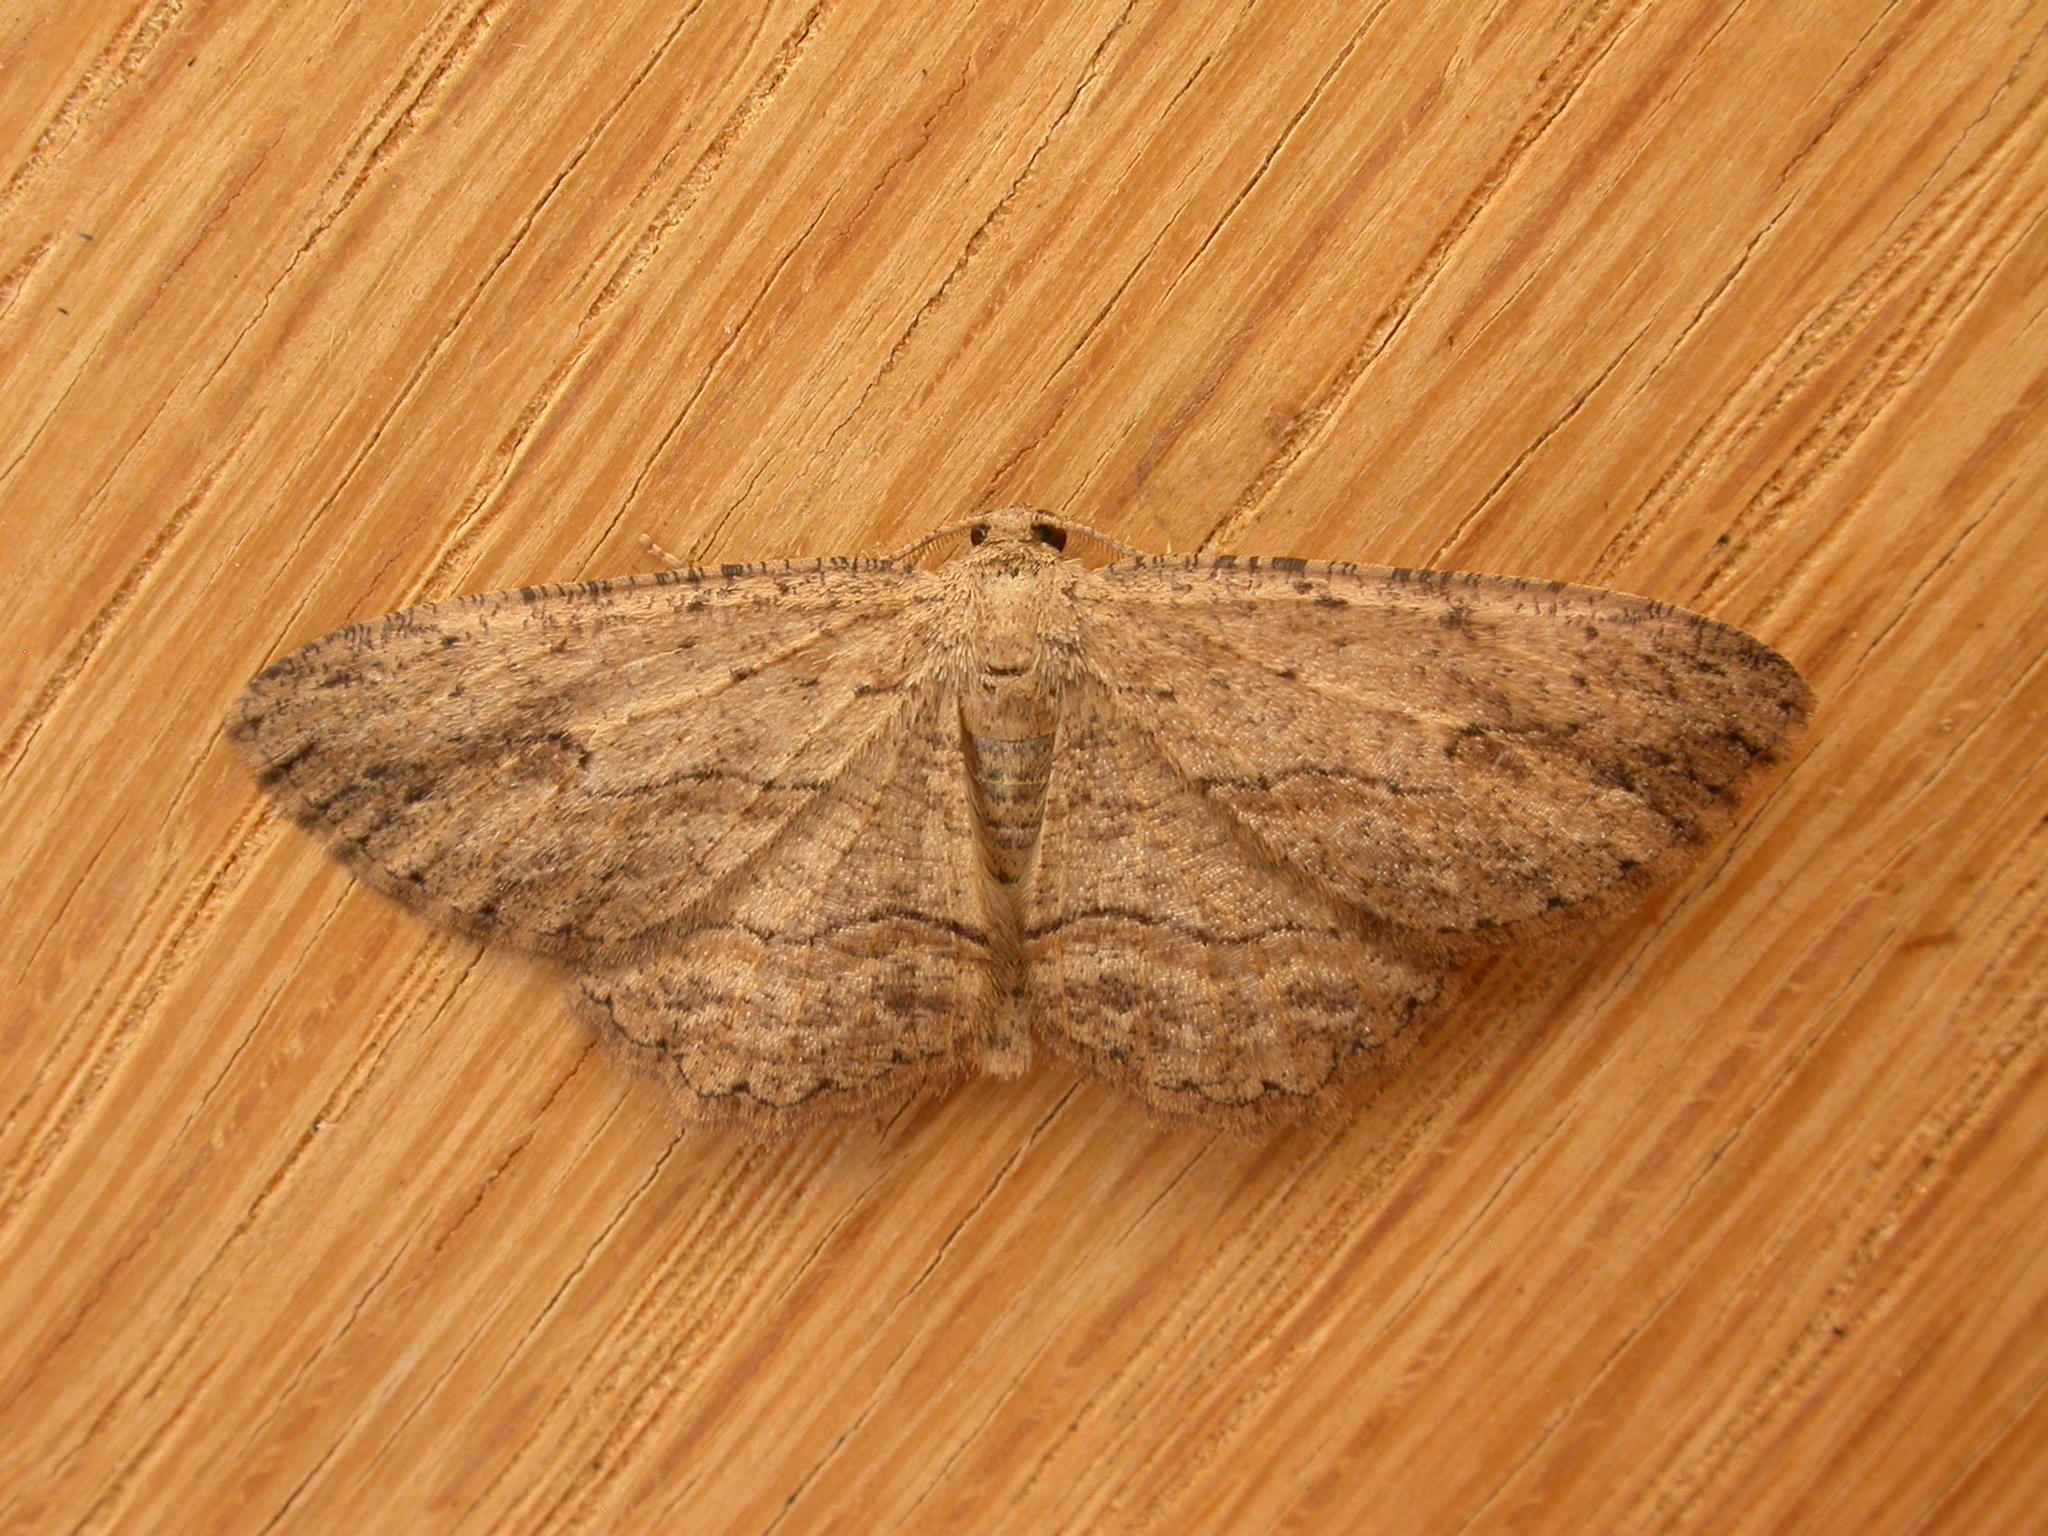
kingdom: Animalia
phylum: Arthropoda
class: Insecta
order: Lepidoptera
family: Geometridae
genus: Ectropis
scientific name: Ectropis excursaria
